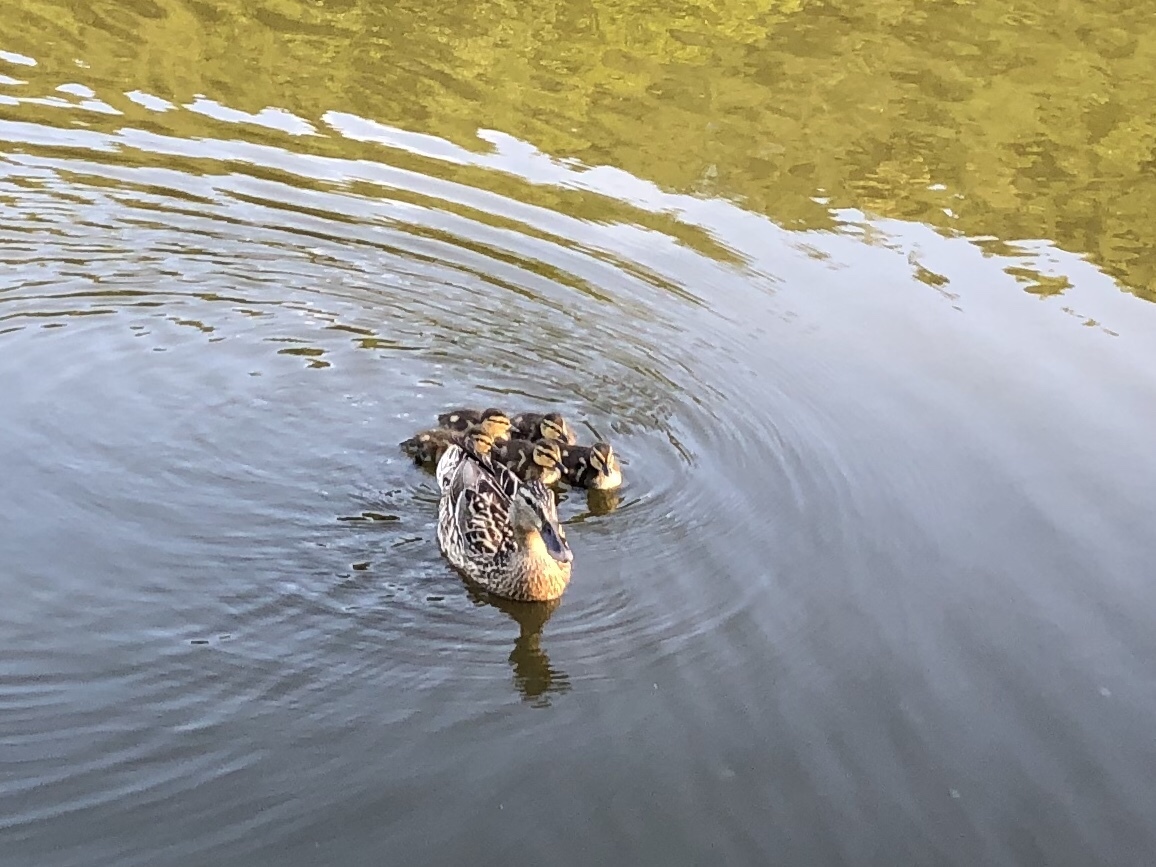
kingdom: Animalia
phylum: Chordata
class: Aves
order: Anseriformes
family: Anatidae
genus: Anas
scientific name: Anas platyrhynchos
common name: Mallard
